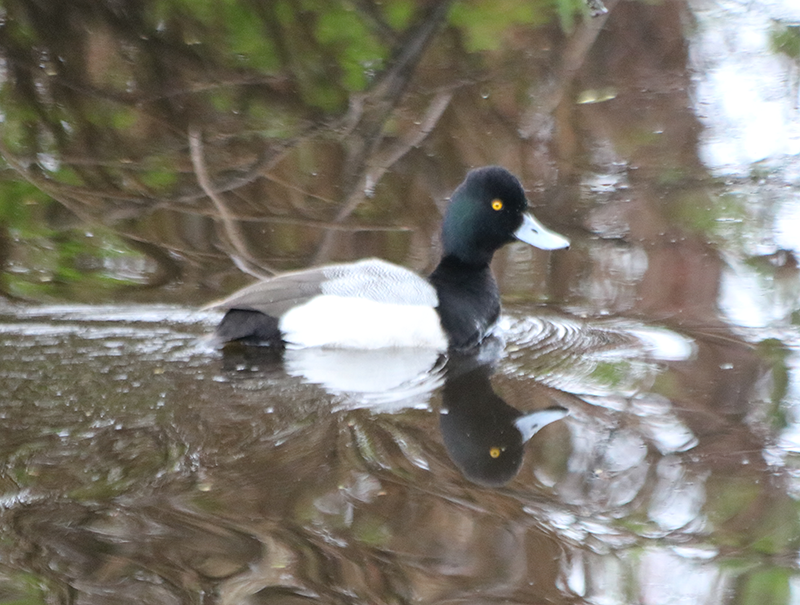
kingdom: Animalia
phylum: Chordata
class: Aves
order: Anseriformes
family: Anatidae
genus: Aythya
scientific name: Aythya affinis
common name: Lesser scaup
